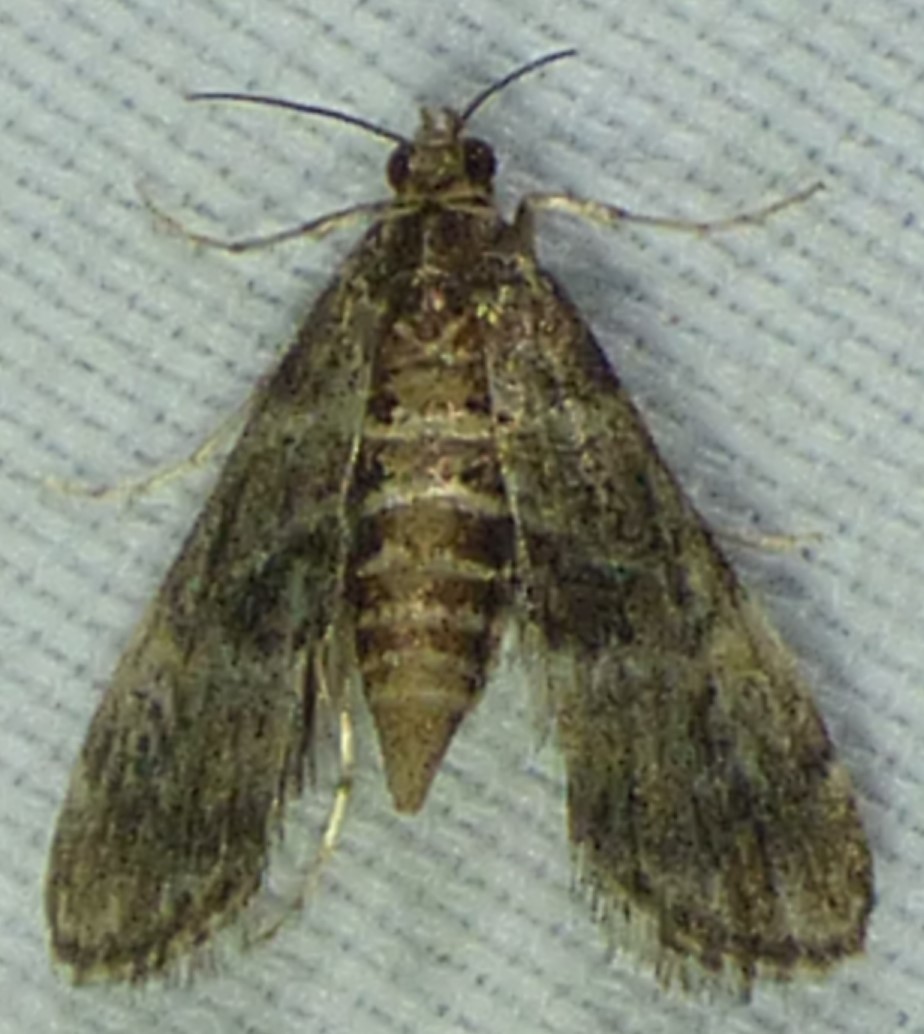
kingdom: Animalia
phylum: Arthropoda
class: Insecta
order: Lepidoptera
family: Crambidae
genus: Elophila
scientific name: Elophila obliteralis
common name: Waterlily leafcutter moth
